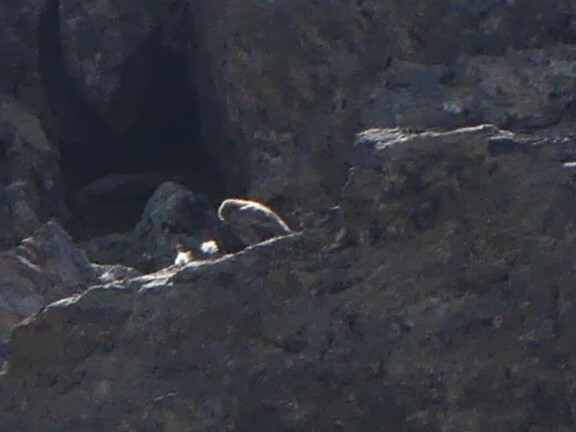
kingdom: Animalia
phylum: Chordata
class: Aves
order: Passeriformes
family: Fringillidae
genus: Leucosticte
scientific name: Leucosticte tephrocotis
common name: Gray-crowned rosy-finch
